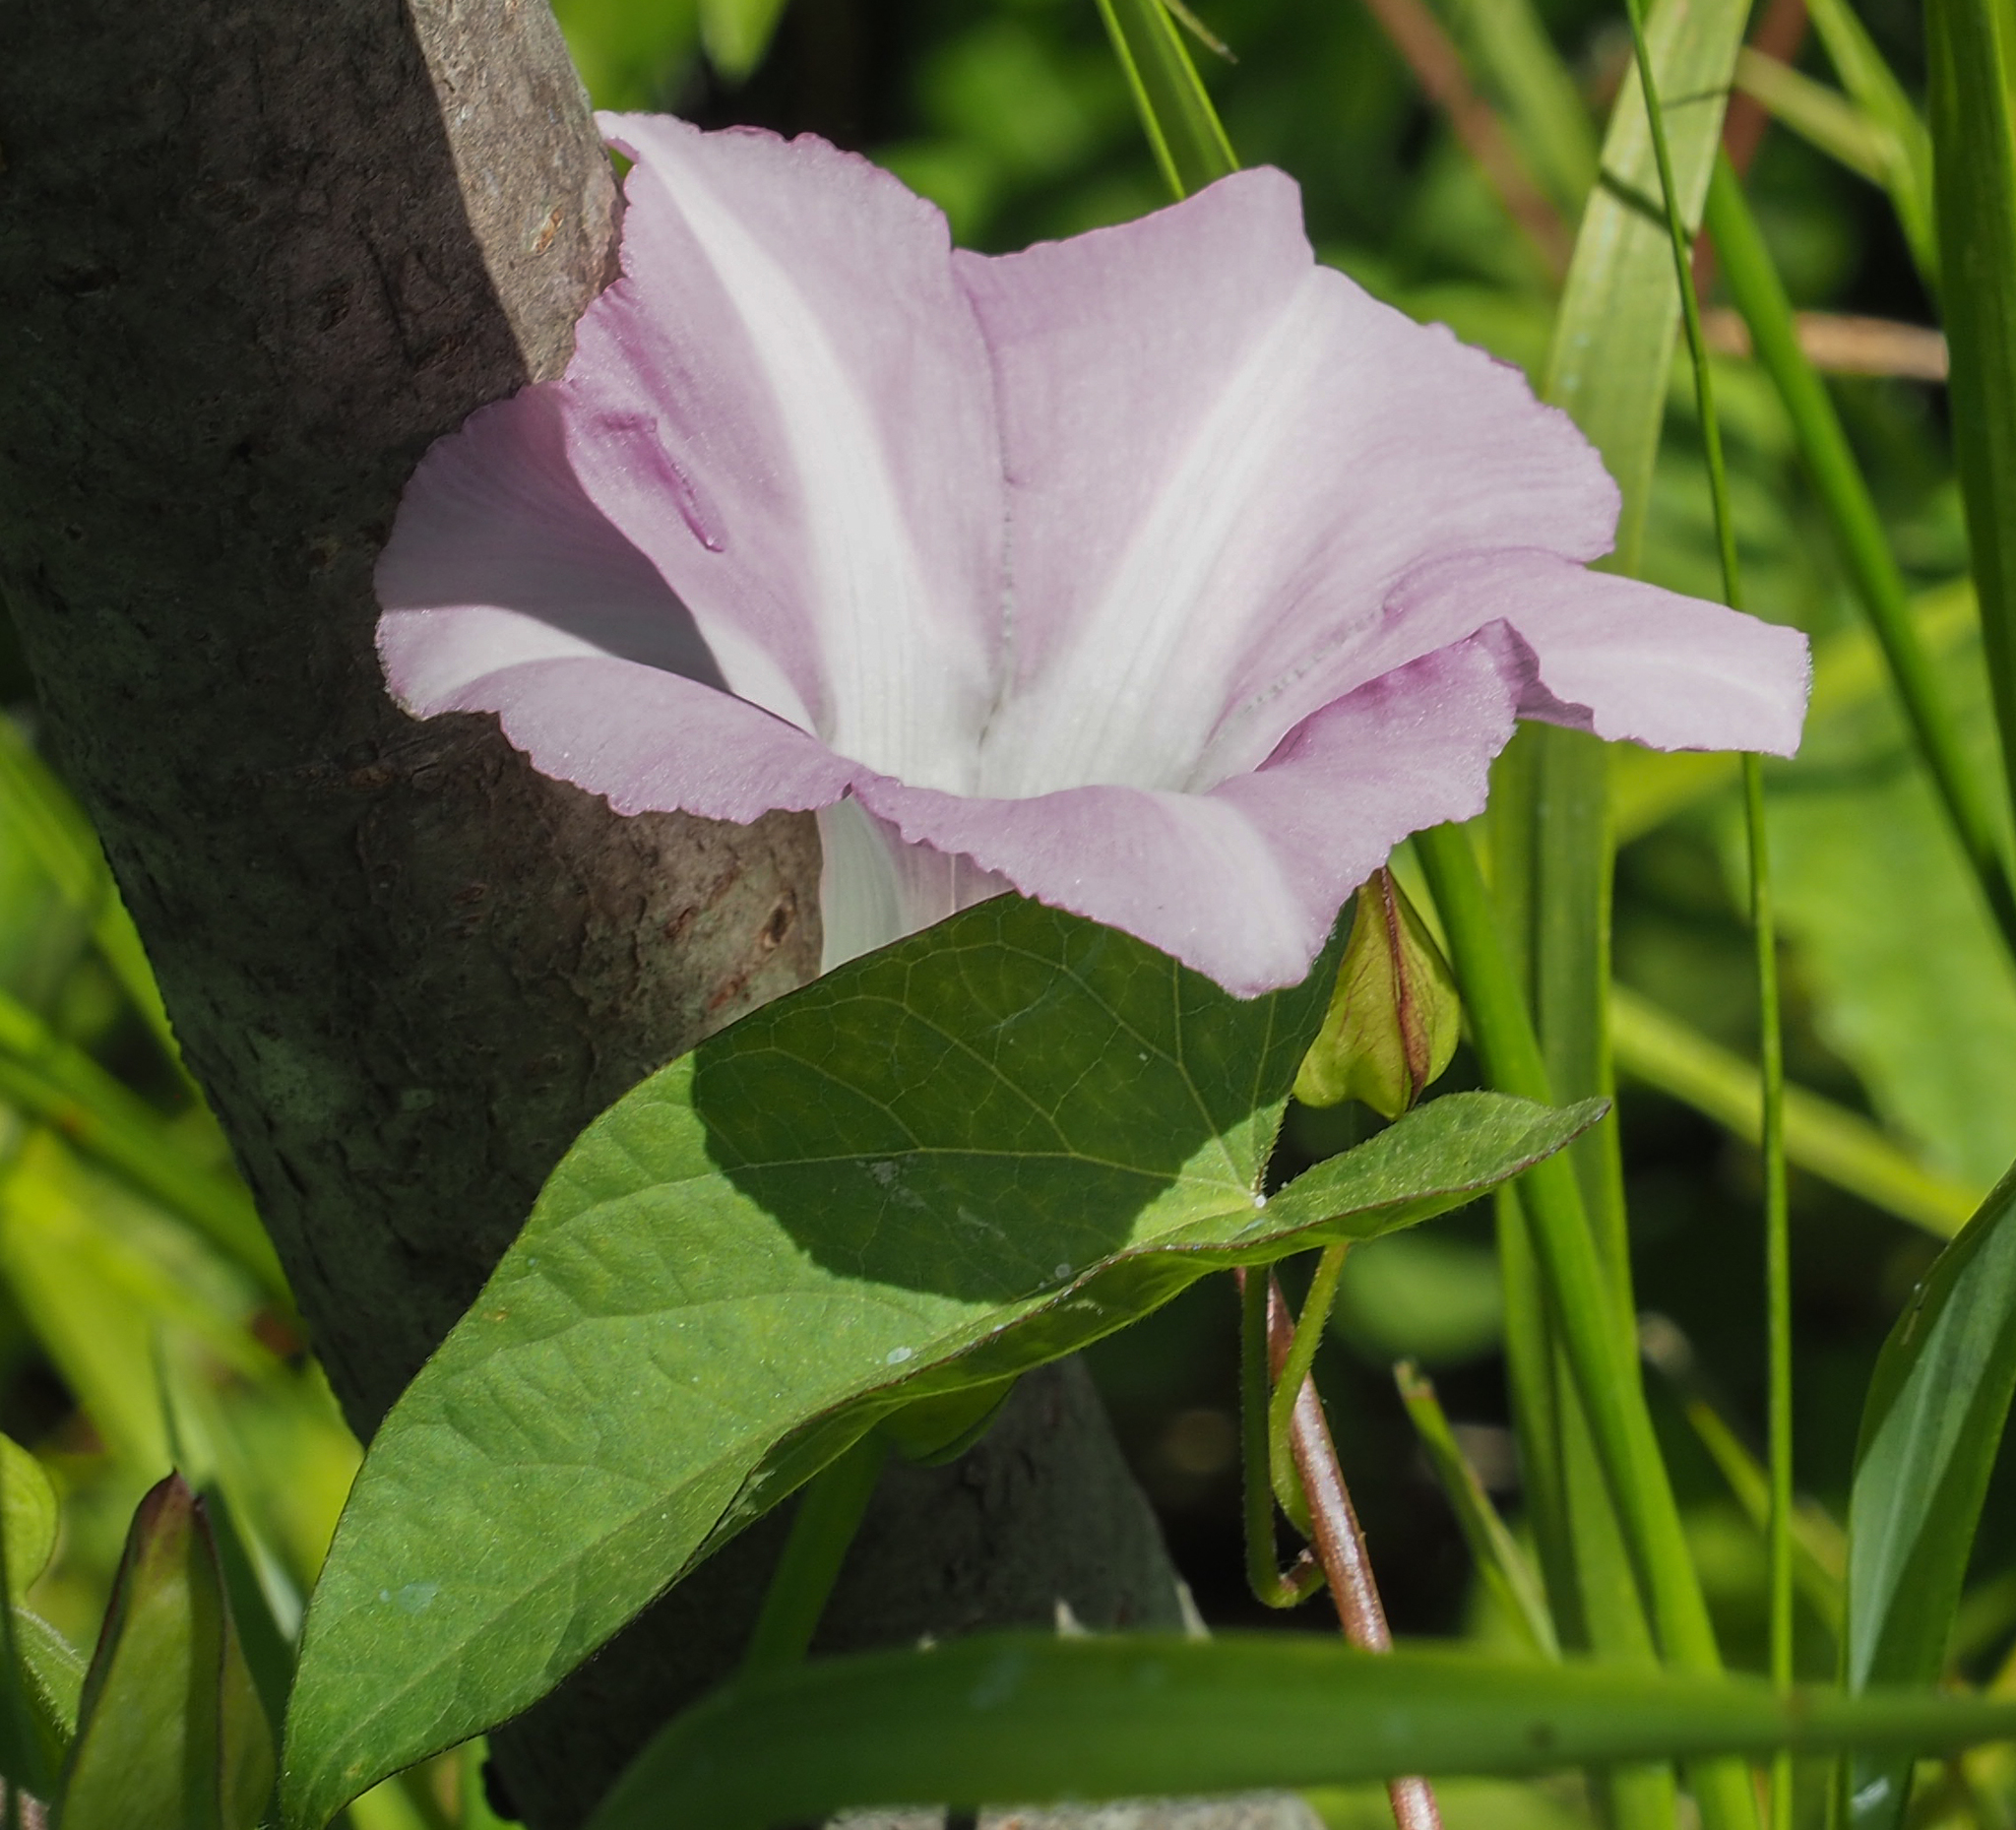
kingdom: Plantae
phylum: Tracheophyta
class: Magnoliopsida
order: Solanales
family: Convolvulaceae
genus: Calystegia
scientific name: Calystegia sepium
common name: Hedge bindweed
